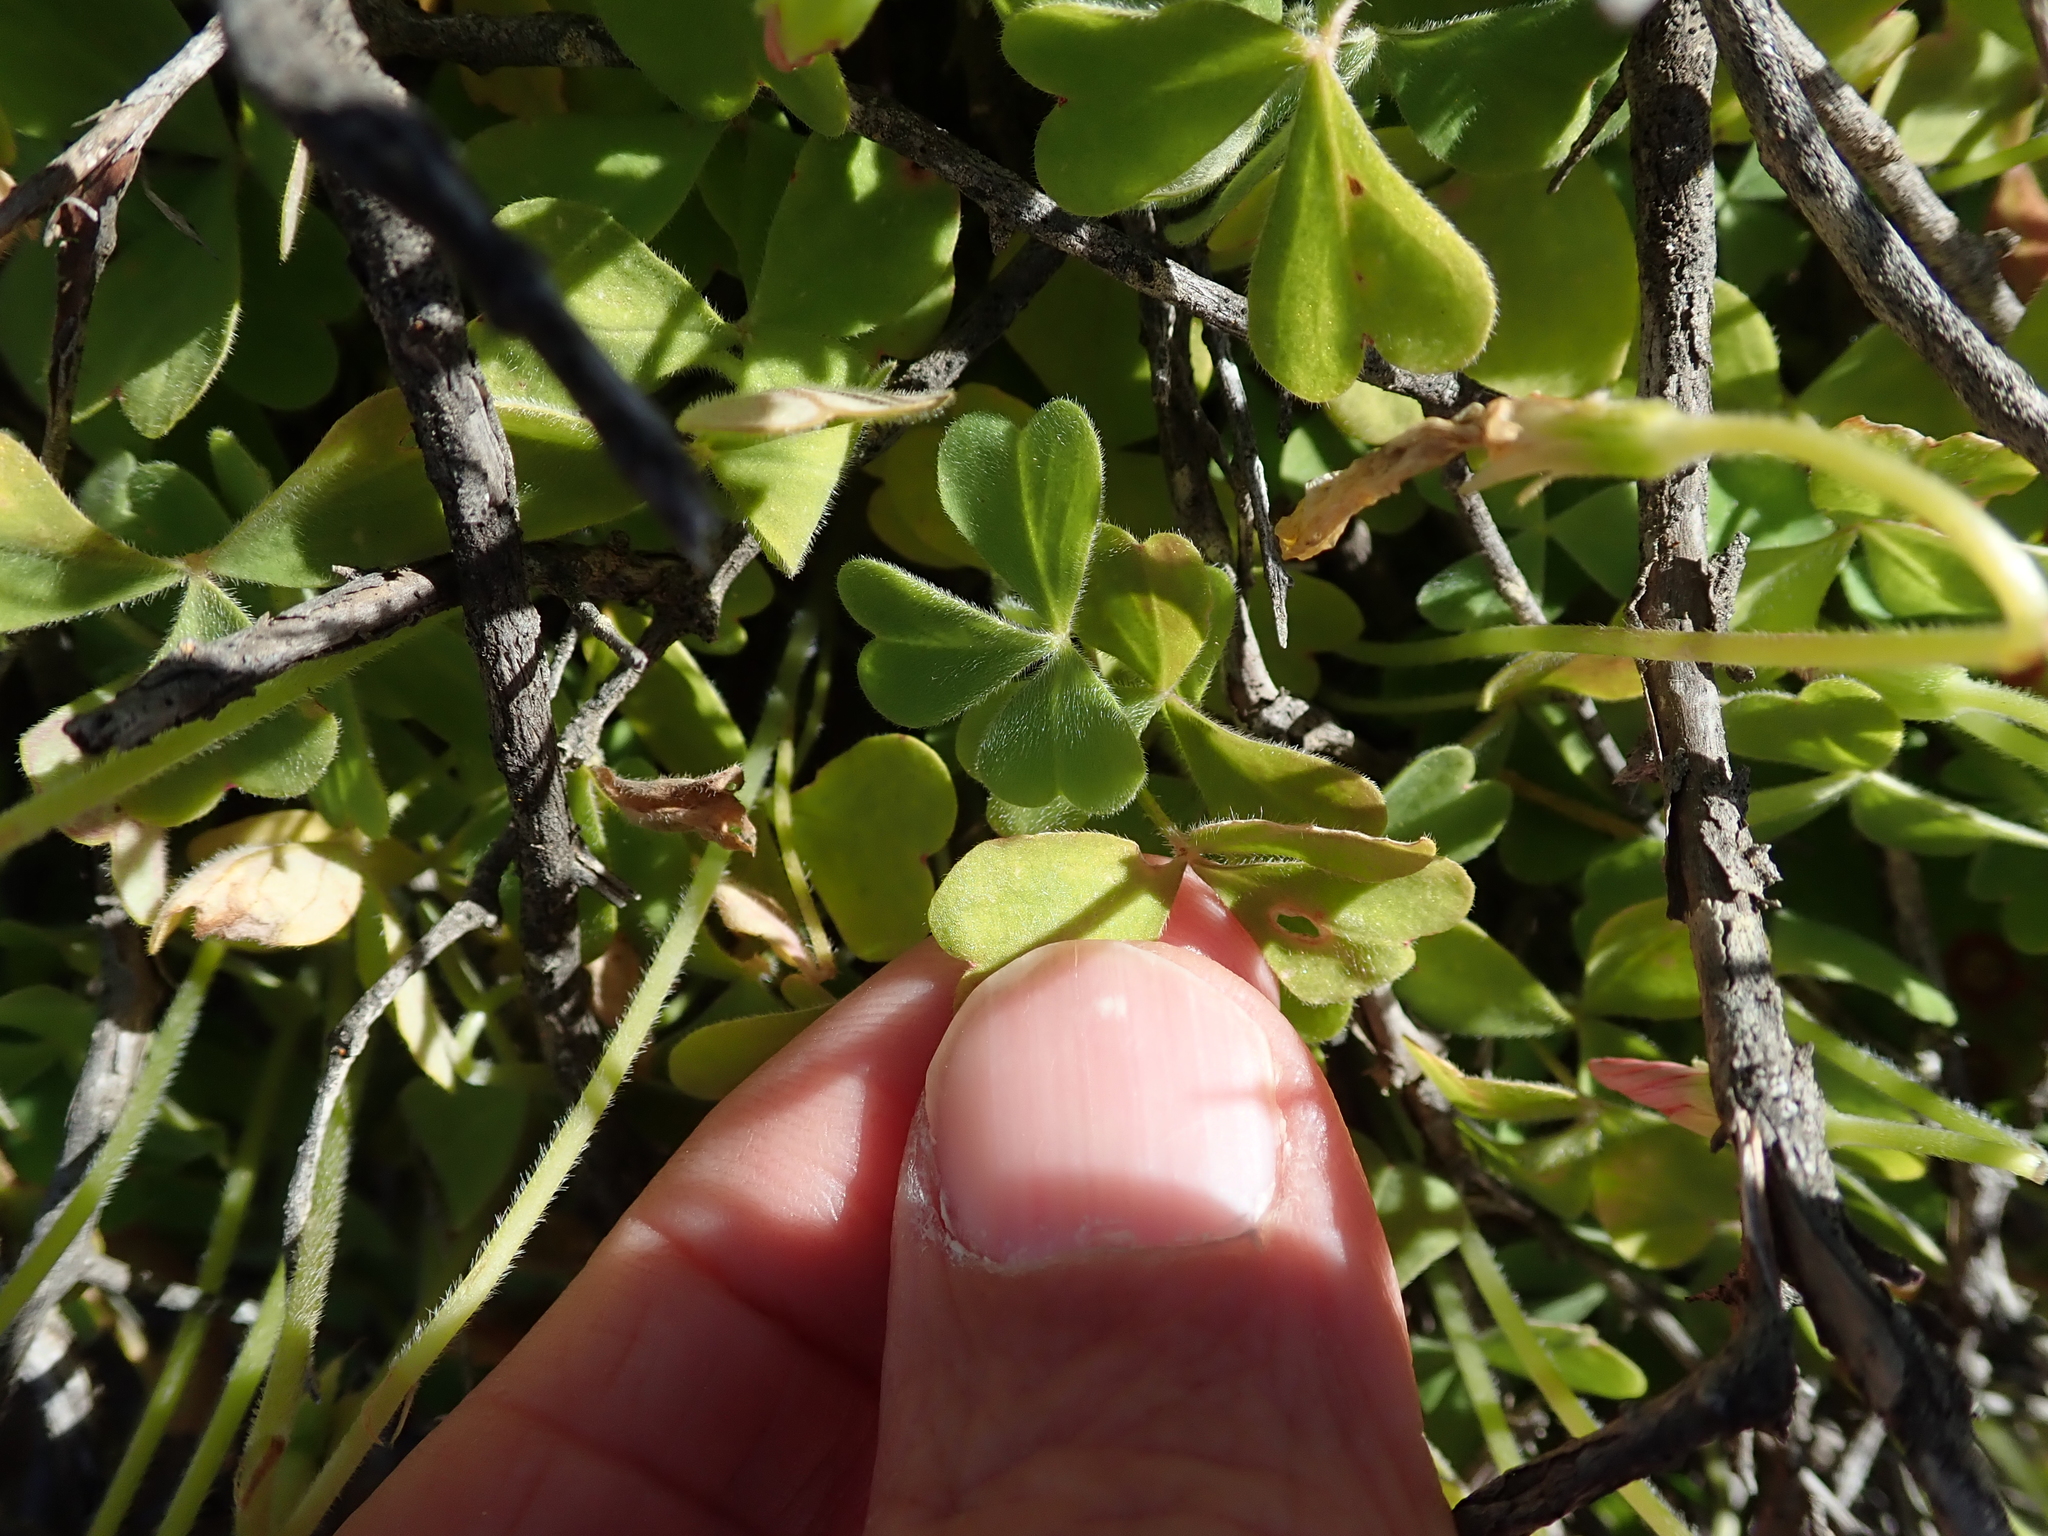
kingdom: Plantae
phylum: Tracheophyta
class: Magnoliopsida
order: Oxalidales
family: Oxalidaceae
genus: Oxalis
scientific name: Oxalis obtusa
